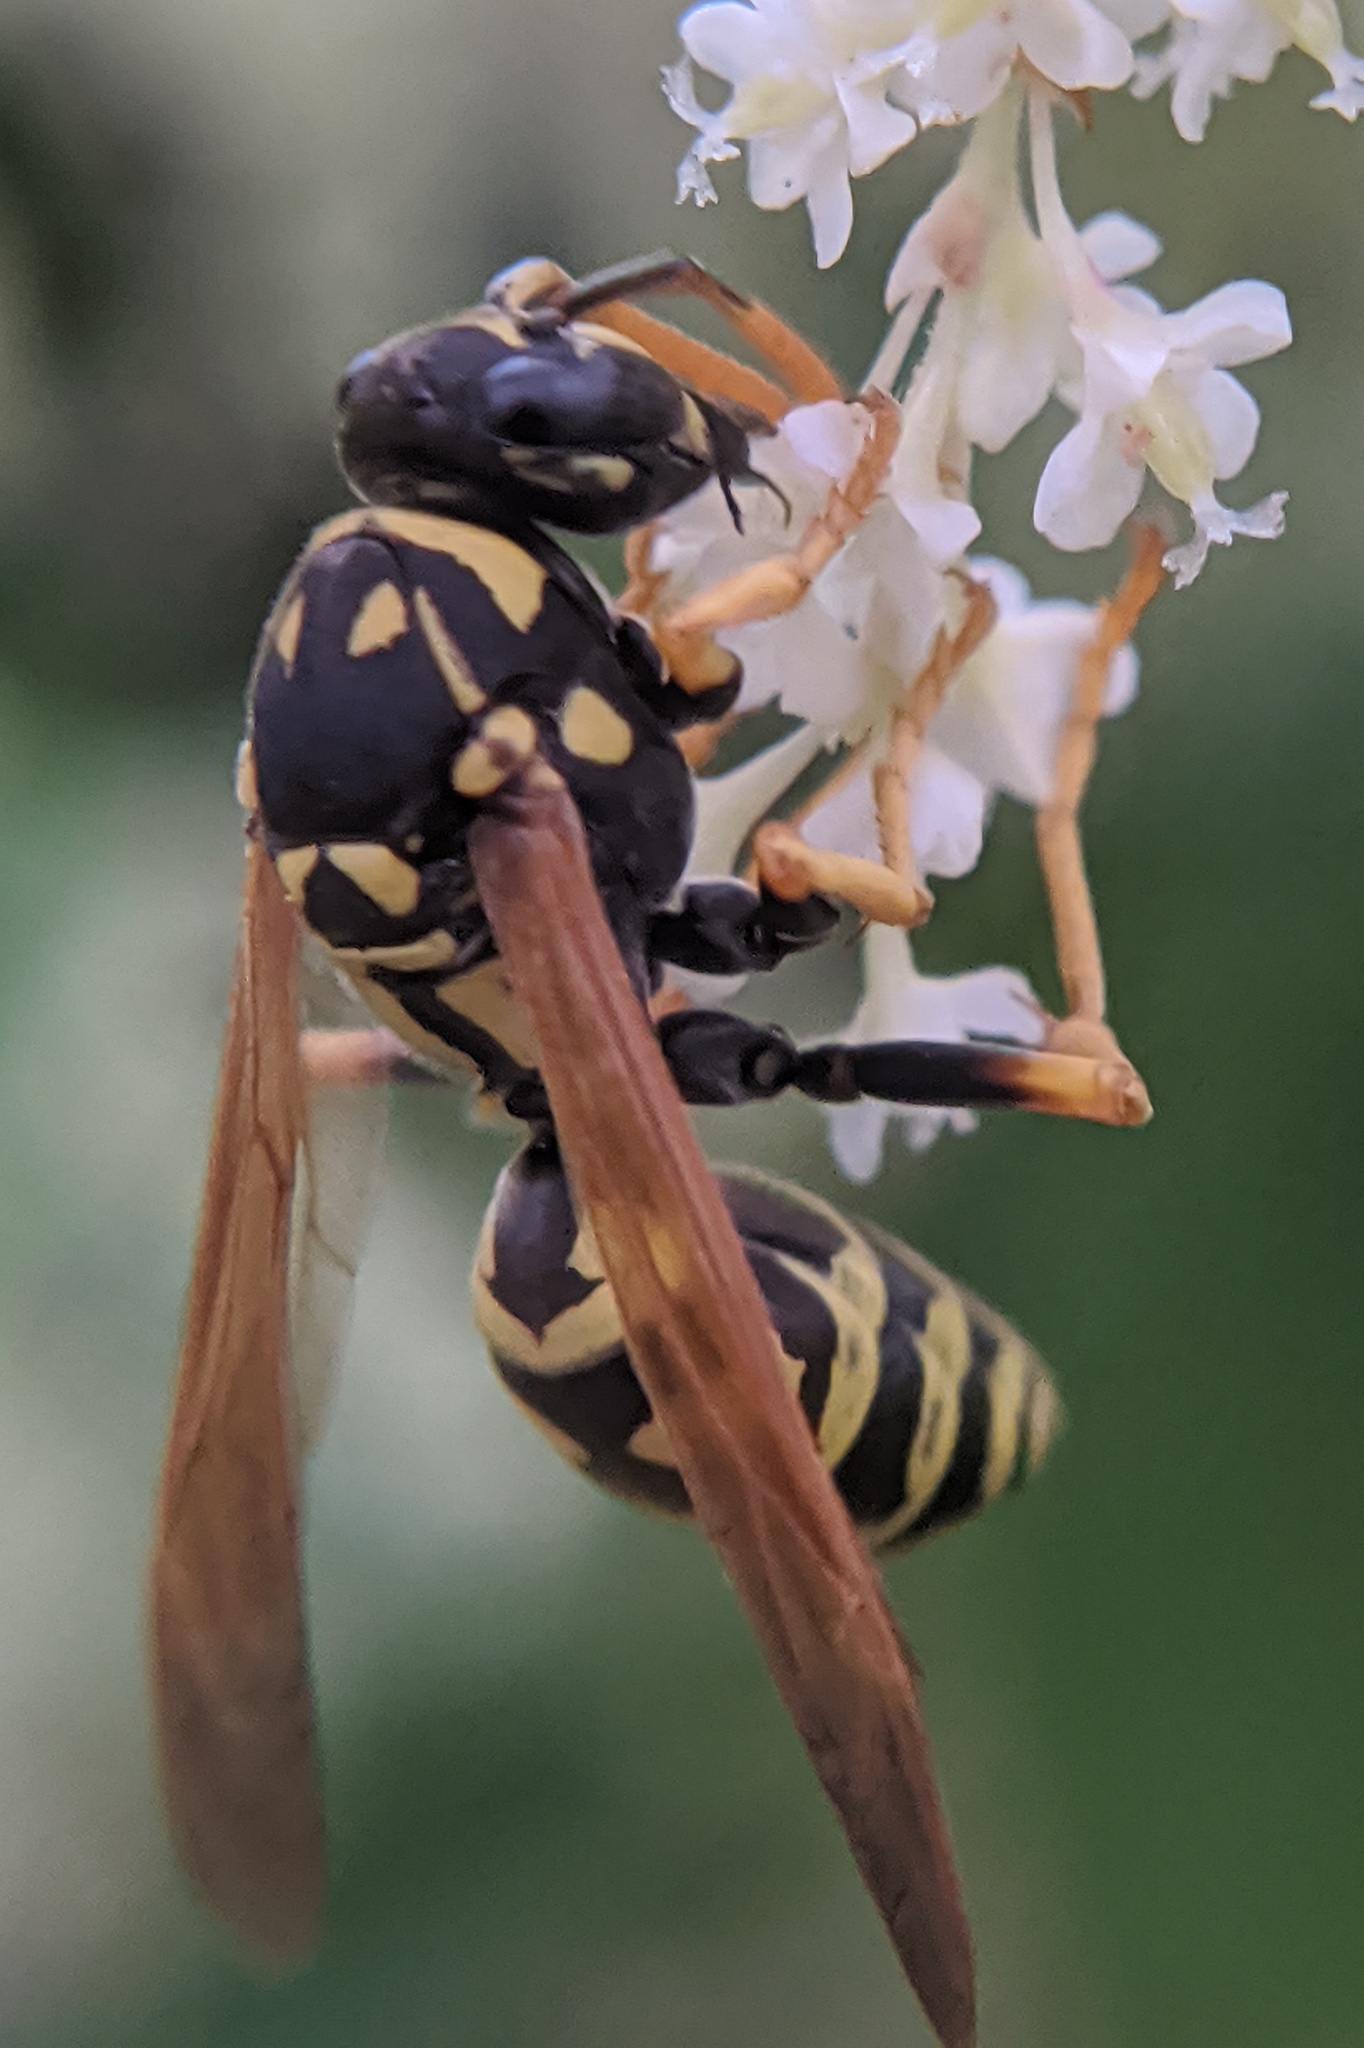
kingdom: Animalia
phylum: Arthropoda
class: Insecta
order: Hymenoptera
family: Eumenidae
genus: Polistes
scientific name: Polistes dominula
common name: Paper wasp
